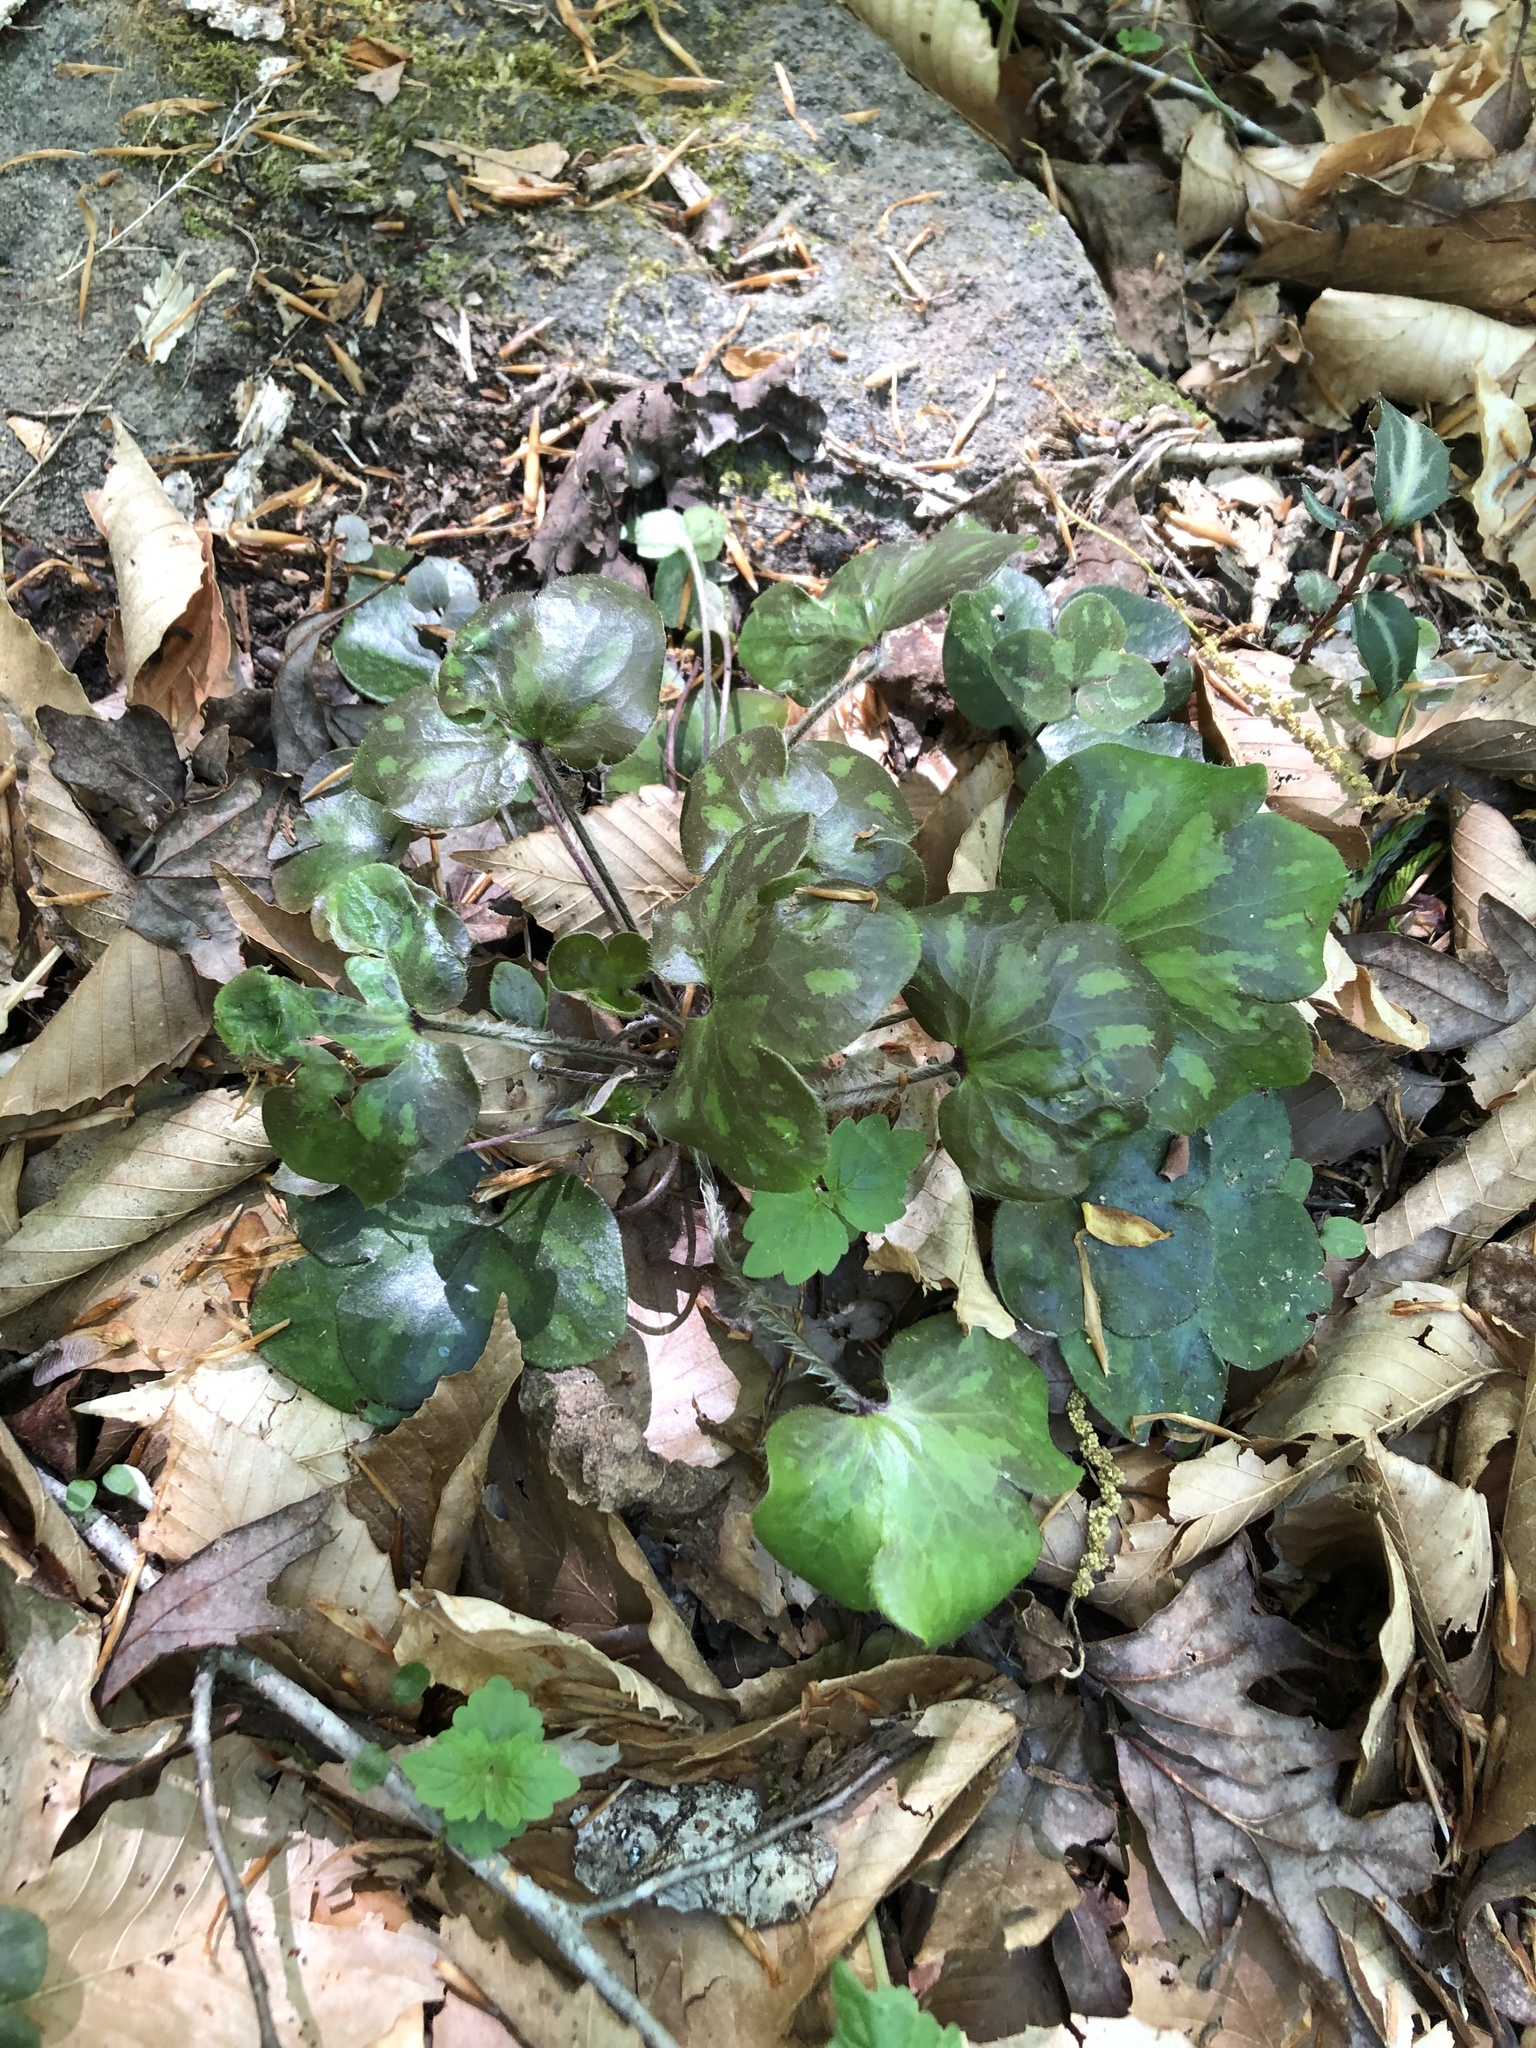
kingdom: Plantae
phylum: Tracheophyta
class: Magnoliopsida
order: Ranunculales
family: Ranunculaceae
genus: Hepatica
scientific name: Hepatica americana
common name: American hepatica
